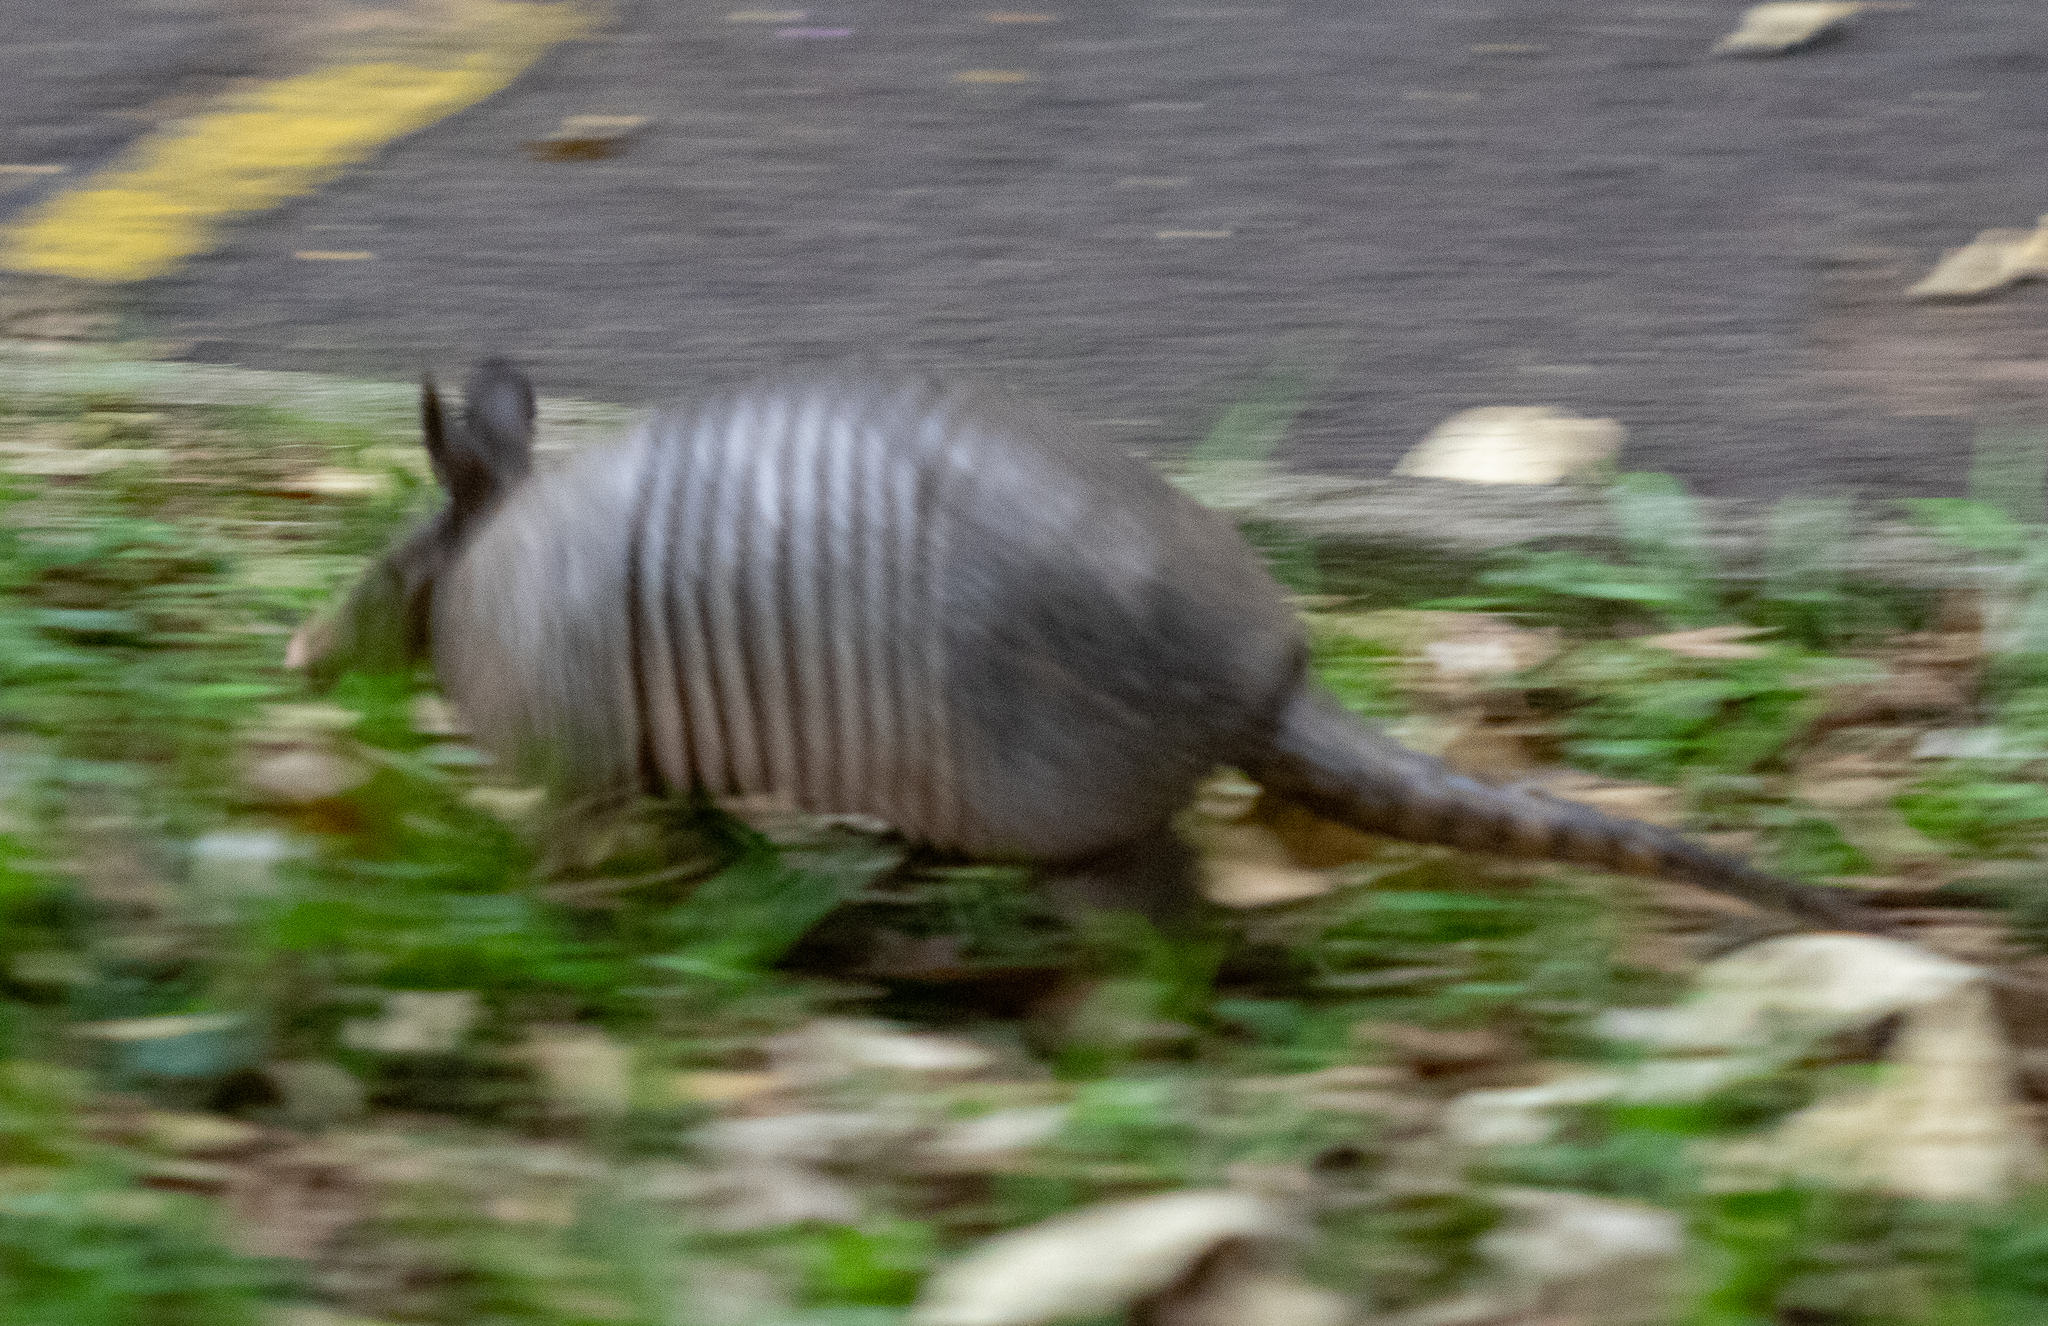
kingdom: Animalia
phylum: Chordata
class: Mammalia
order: Cingulata
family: Dasypodidae
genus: Dasypus
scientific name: Dasypus novemcinctus
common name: Nine-banded armadillo
